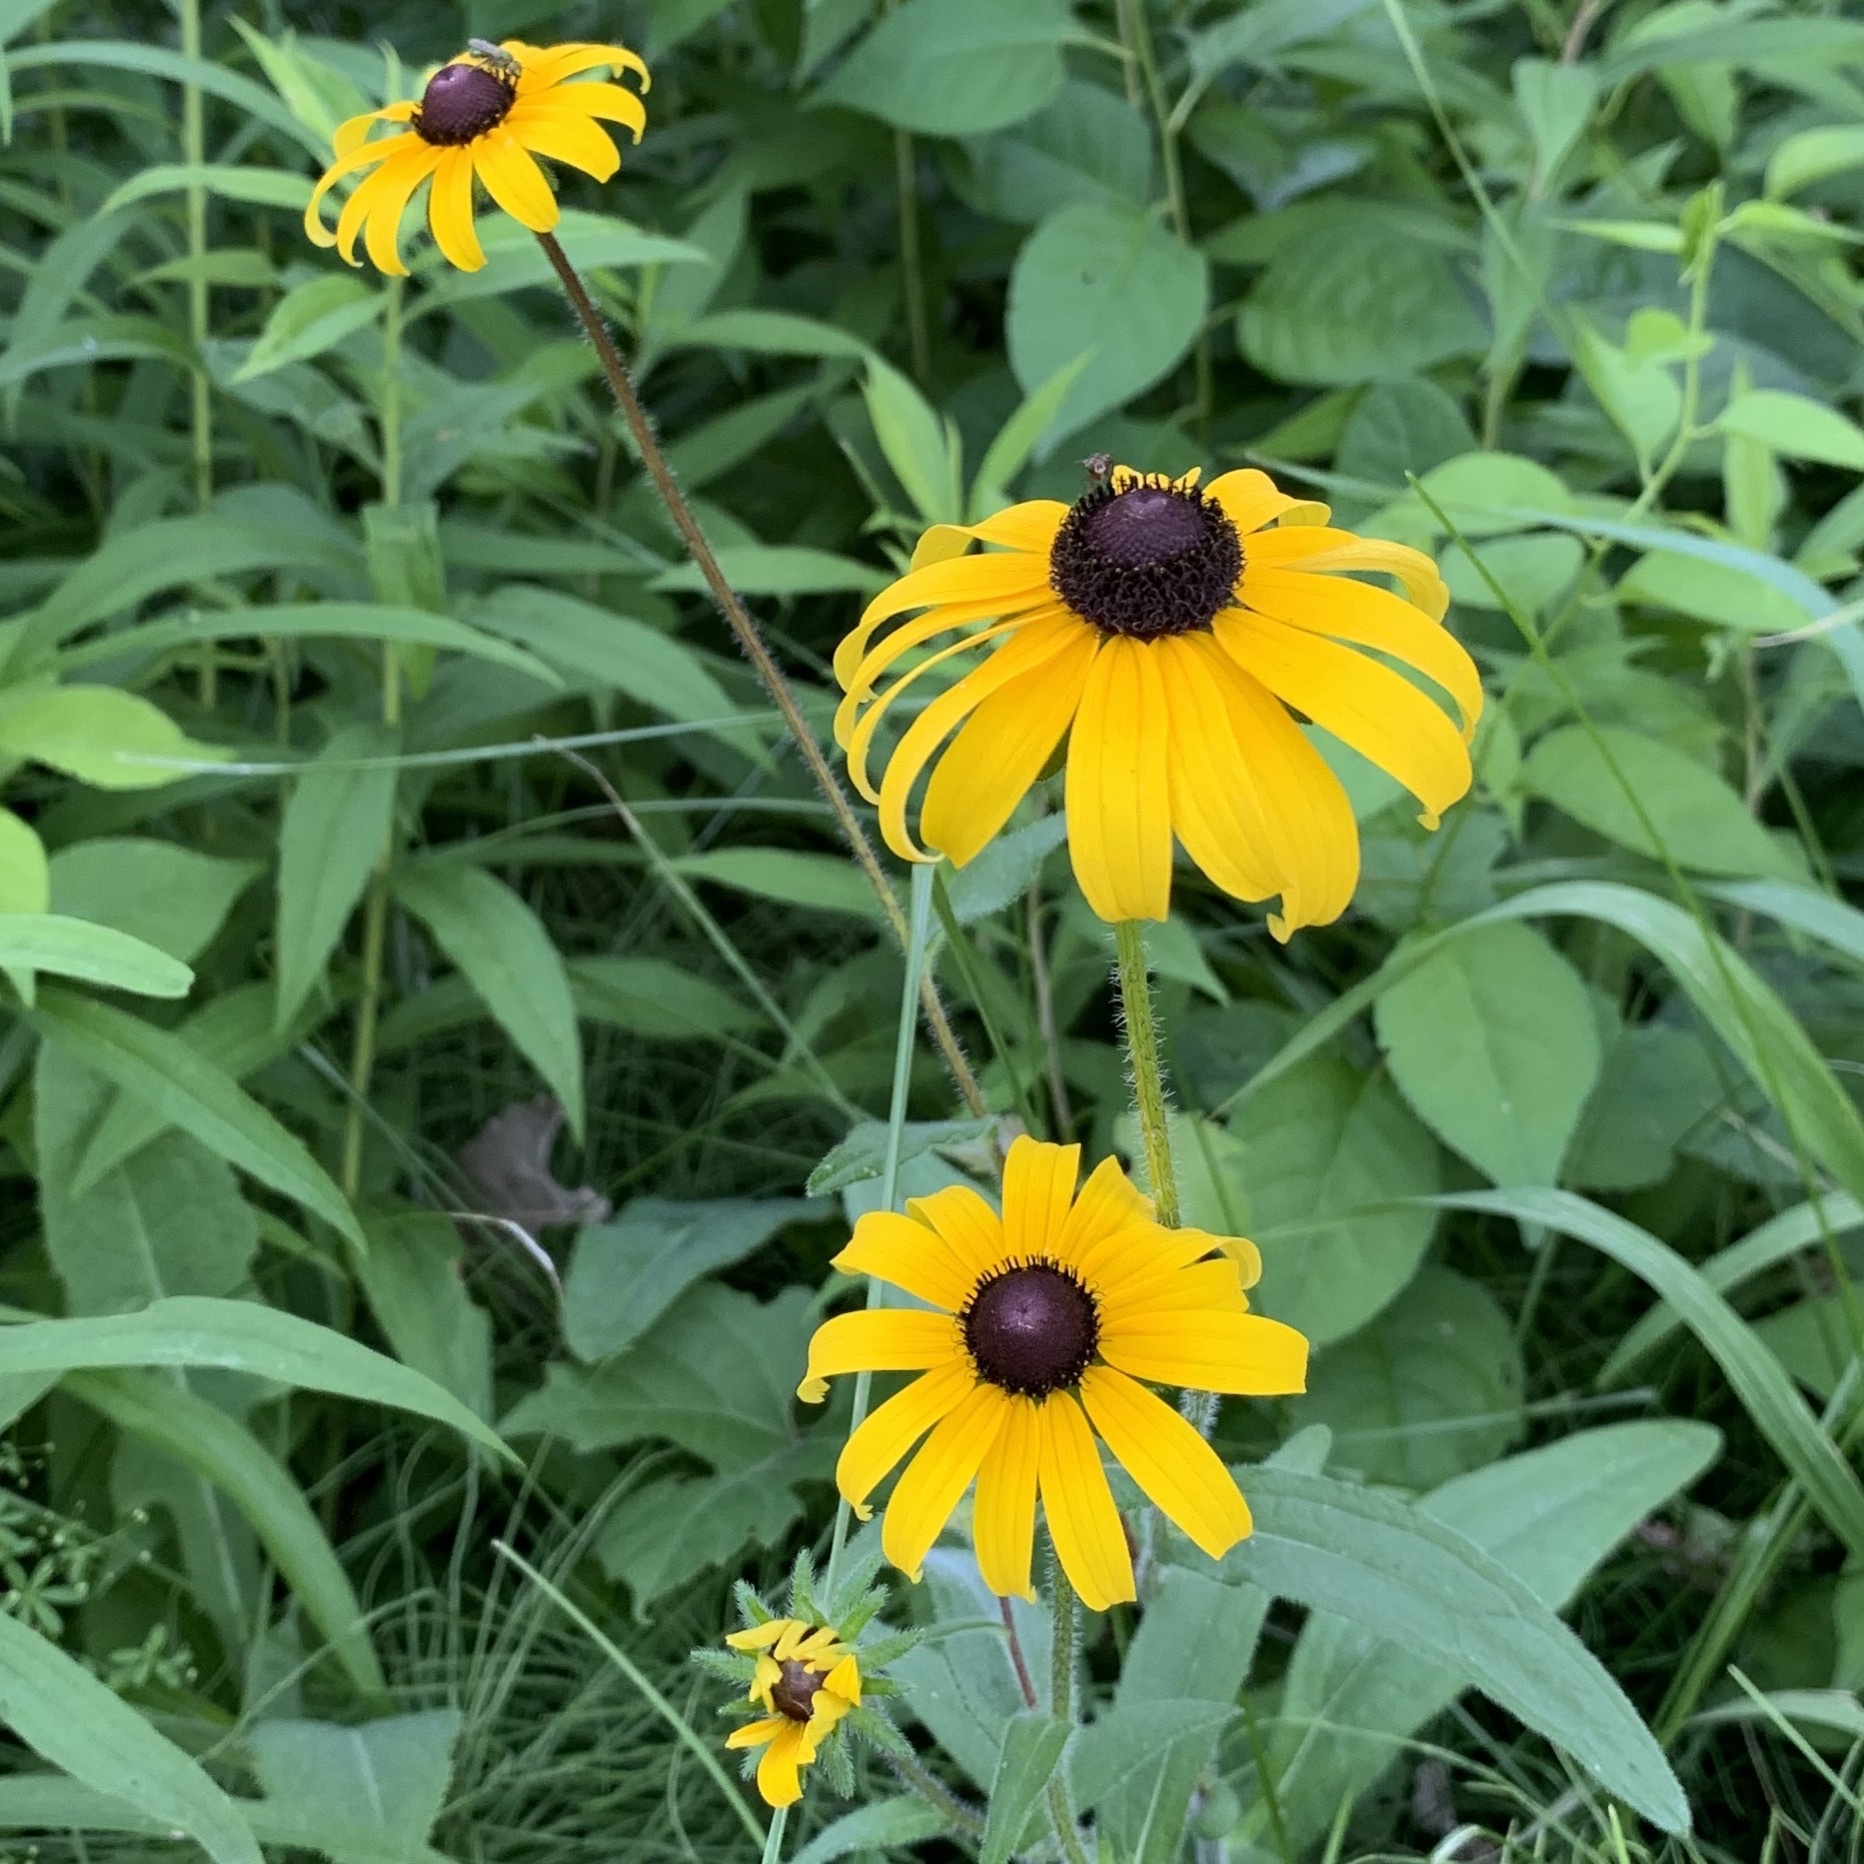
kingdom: Plantae
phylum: Tracheophyta
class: Magnoliopsida
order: Asterales
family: Asteraceae
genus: Rudbeckia
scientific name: Rudbeckia hirta
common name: Black-eyed-susan
